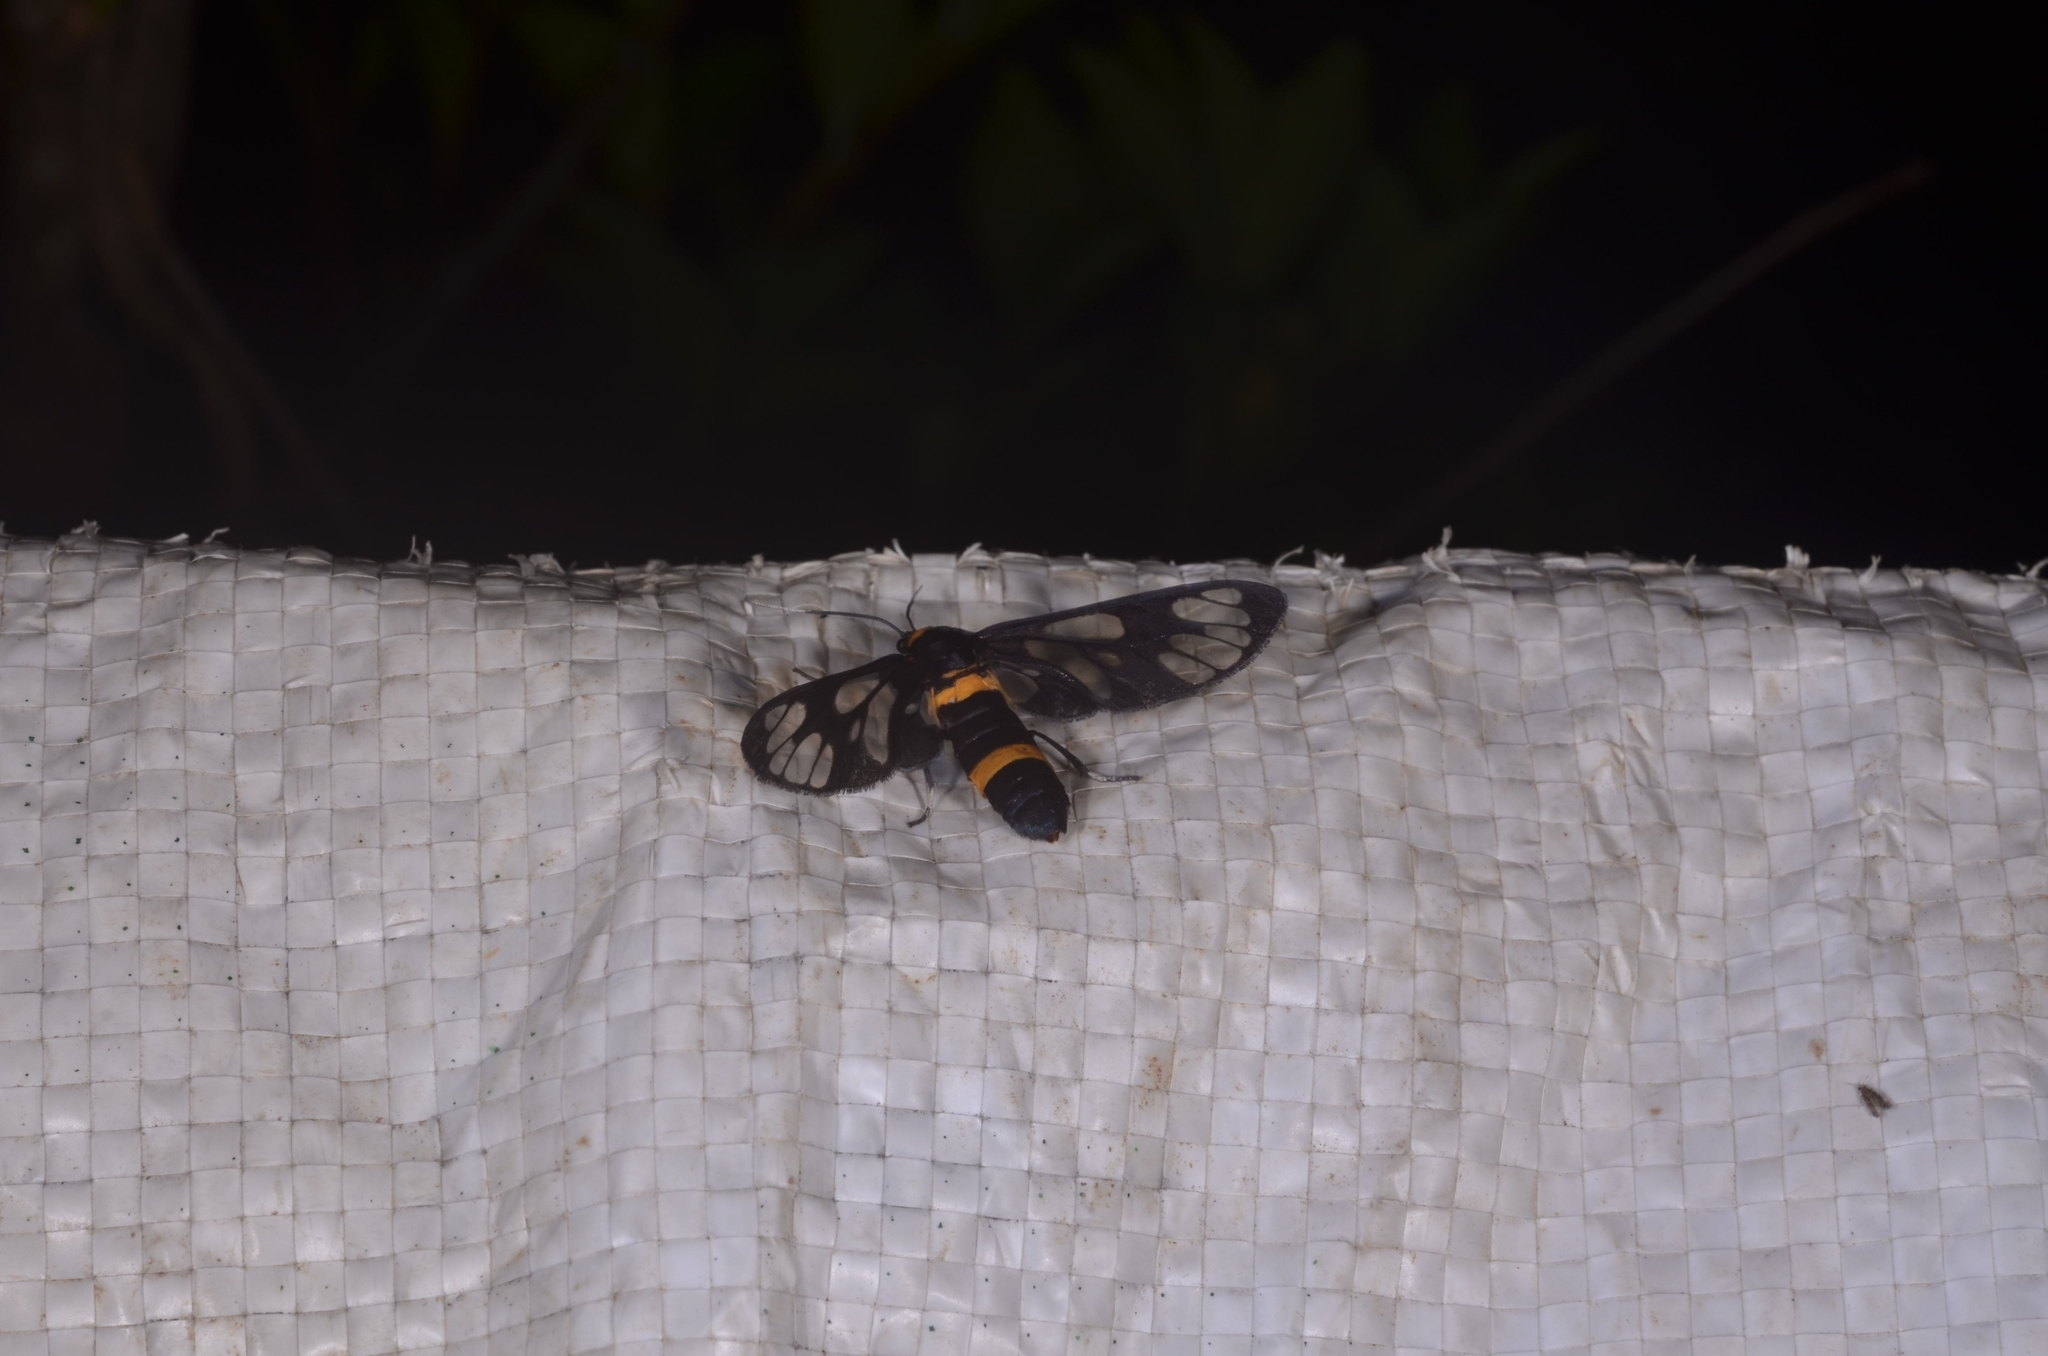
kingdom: Animalia
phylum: Arthropoda
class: Insecta
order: Lepidoptera
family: Erebidae
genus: Syntomoides
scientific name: Syntomoides imaon
